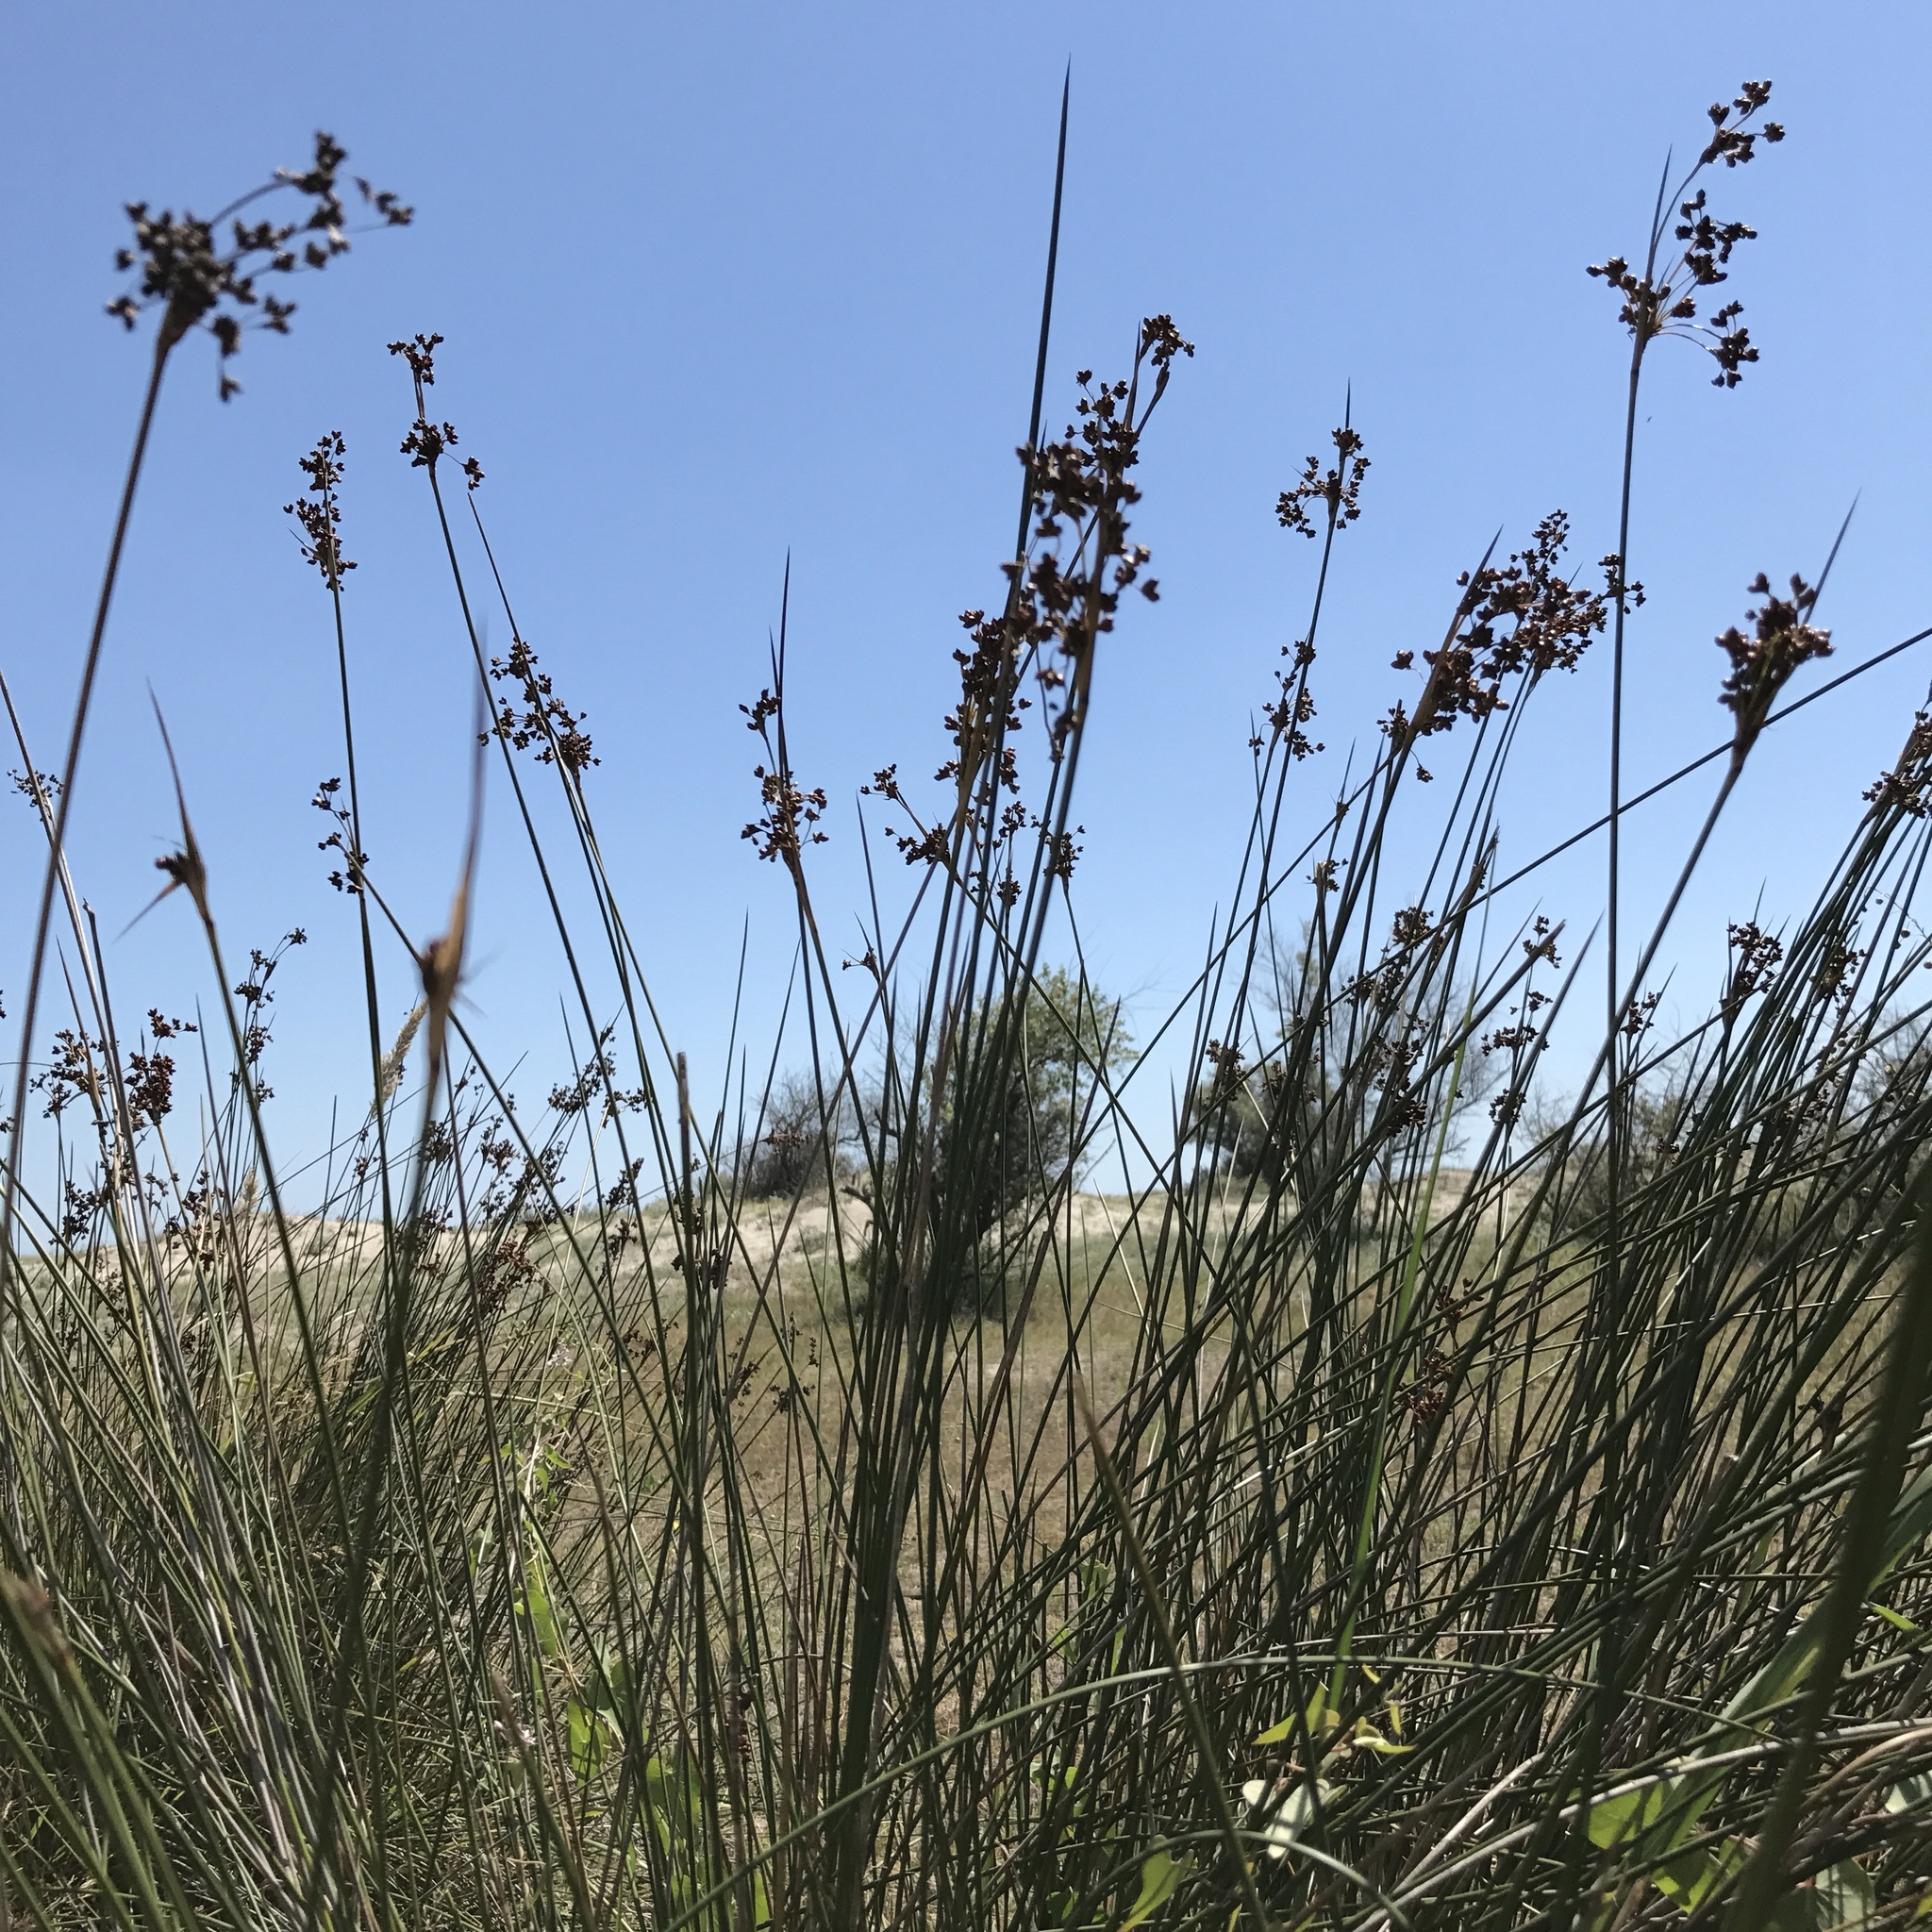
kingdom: Plantae
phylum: Tracheophyta
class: Liliopsida
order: Poales
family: Juncaceae
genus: Juncus
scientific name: Juncus littoralis
